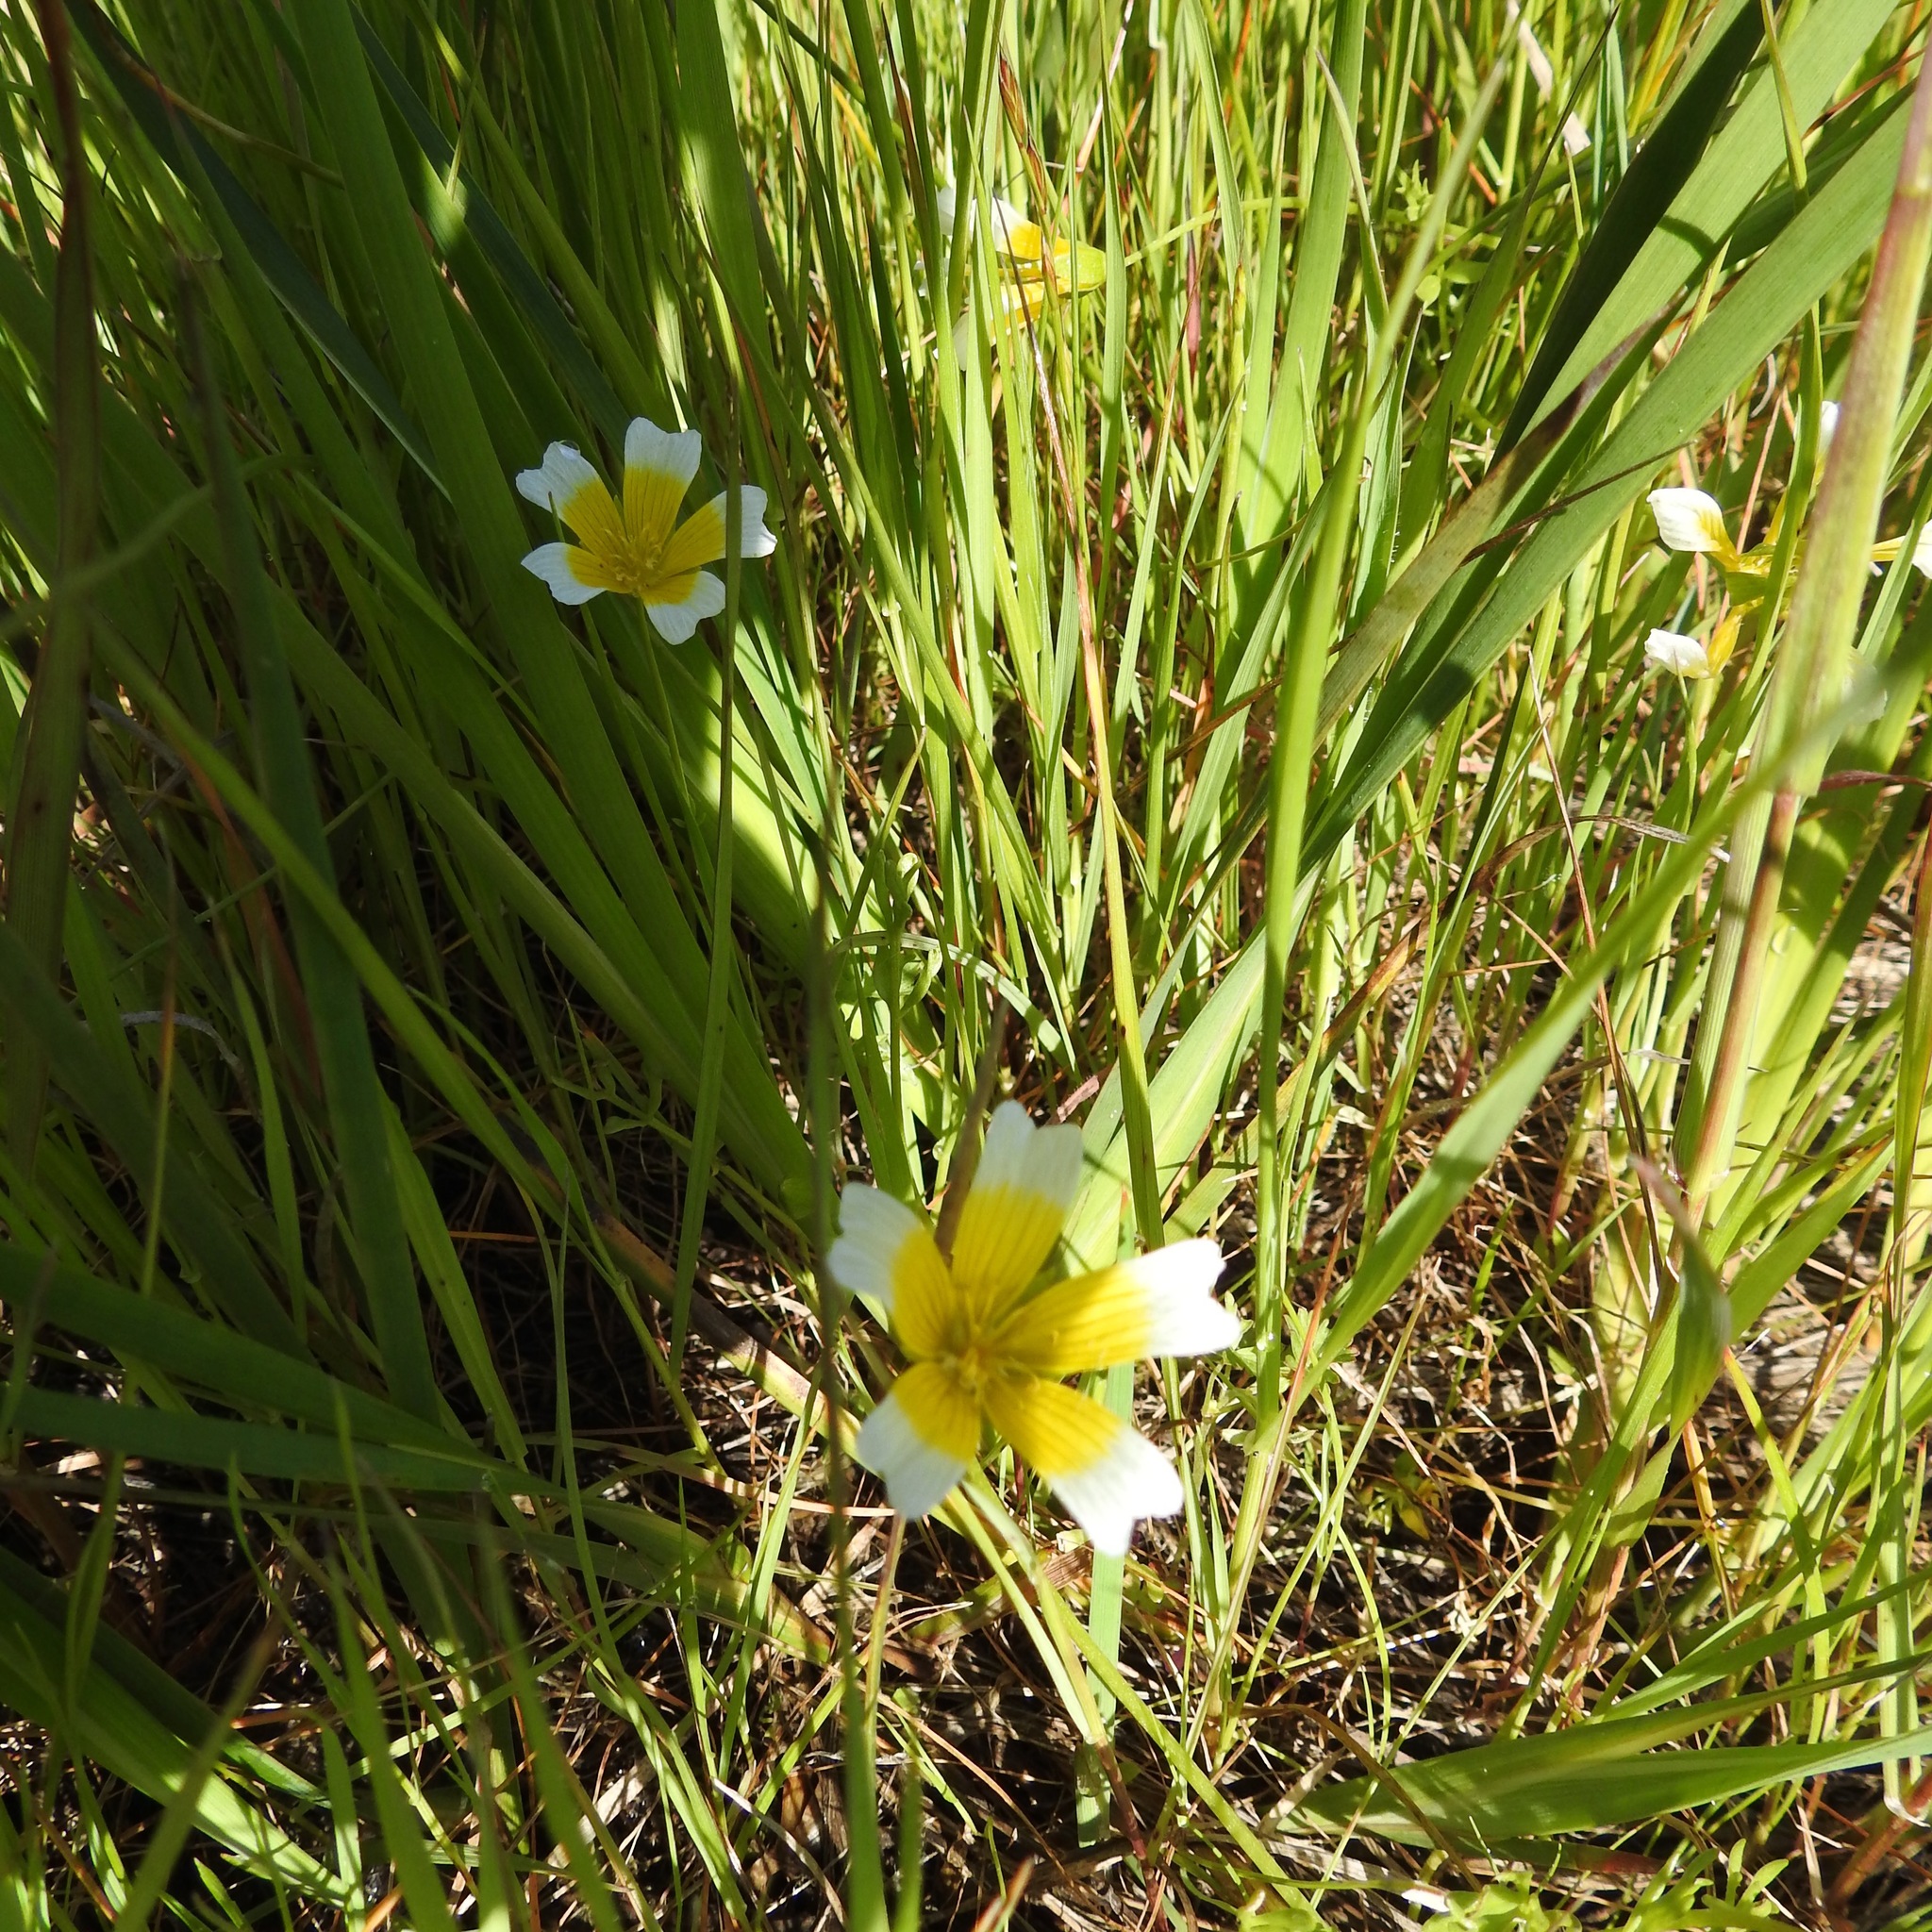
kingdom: Plantae
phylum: Tracheophyta
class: Magnoliopsida
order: Brassicales
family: Limnanthaceae
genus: Limnanthes
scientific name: Limnanthes douglasii
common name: Meadow-foam
